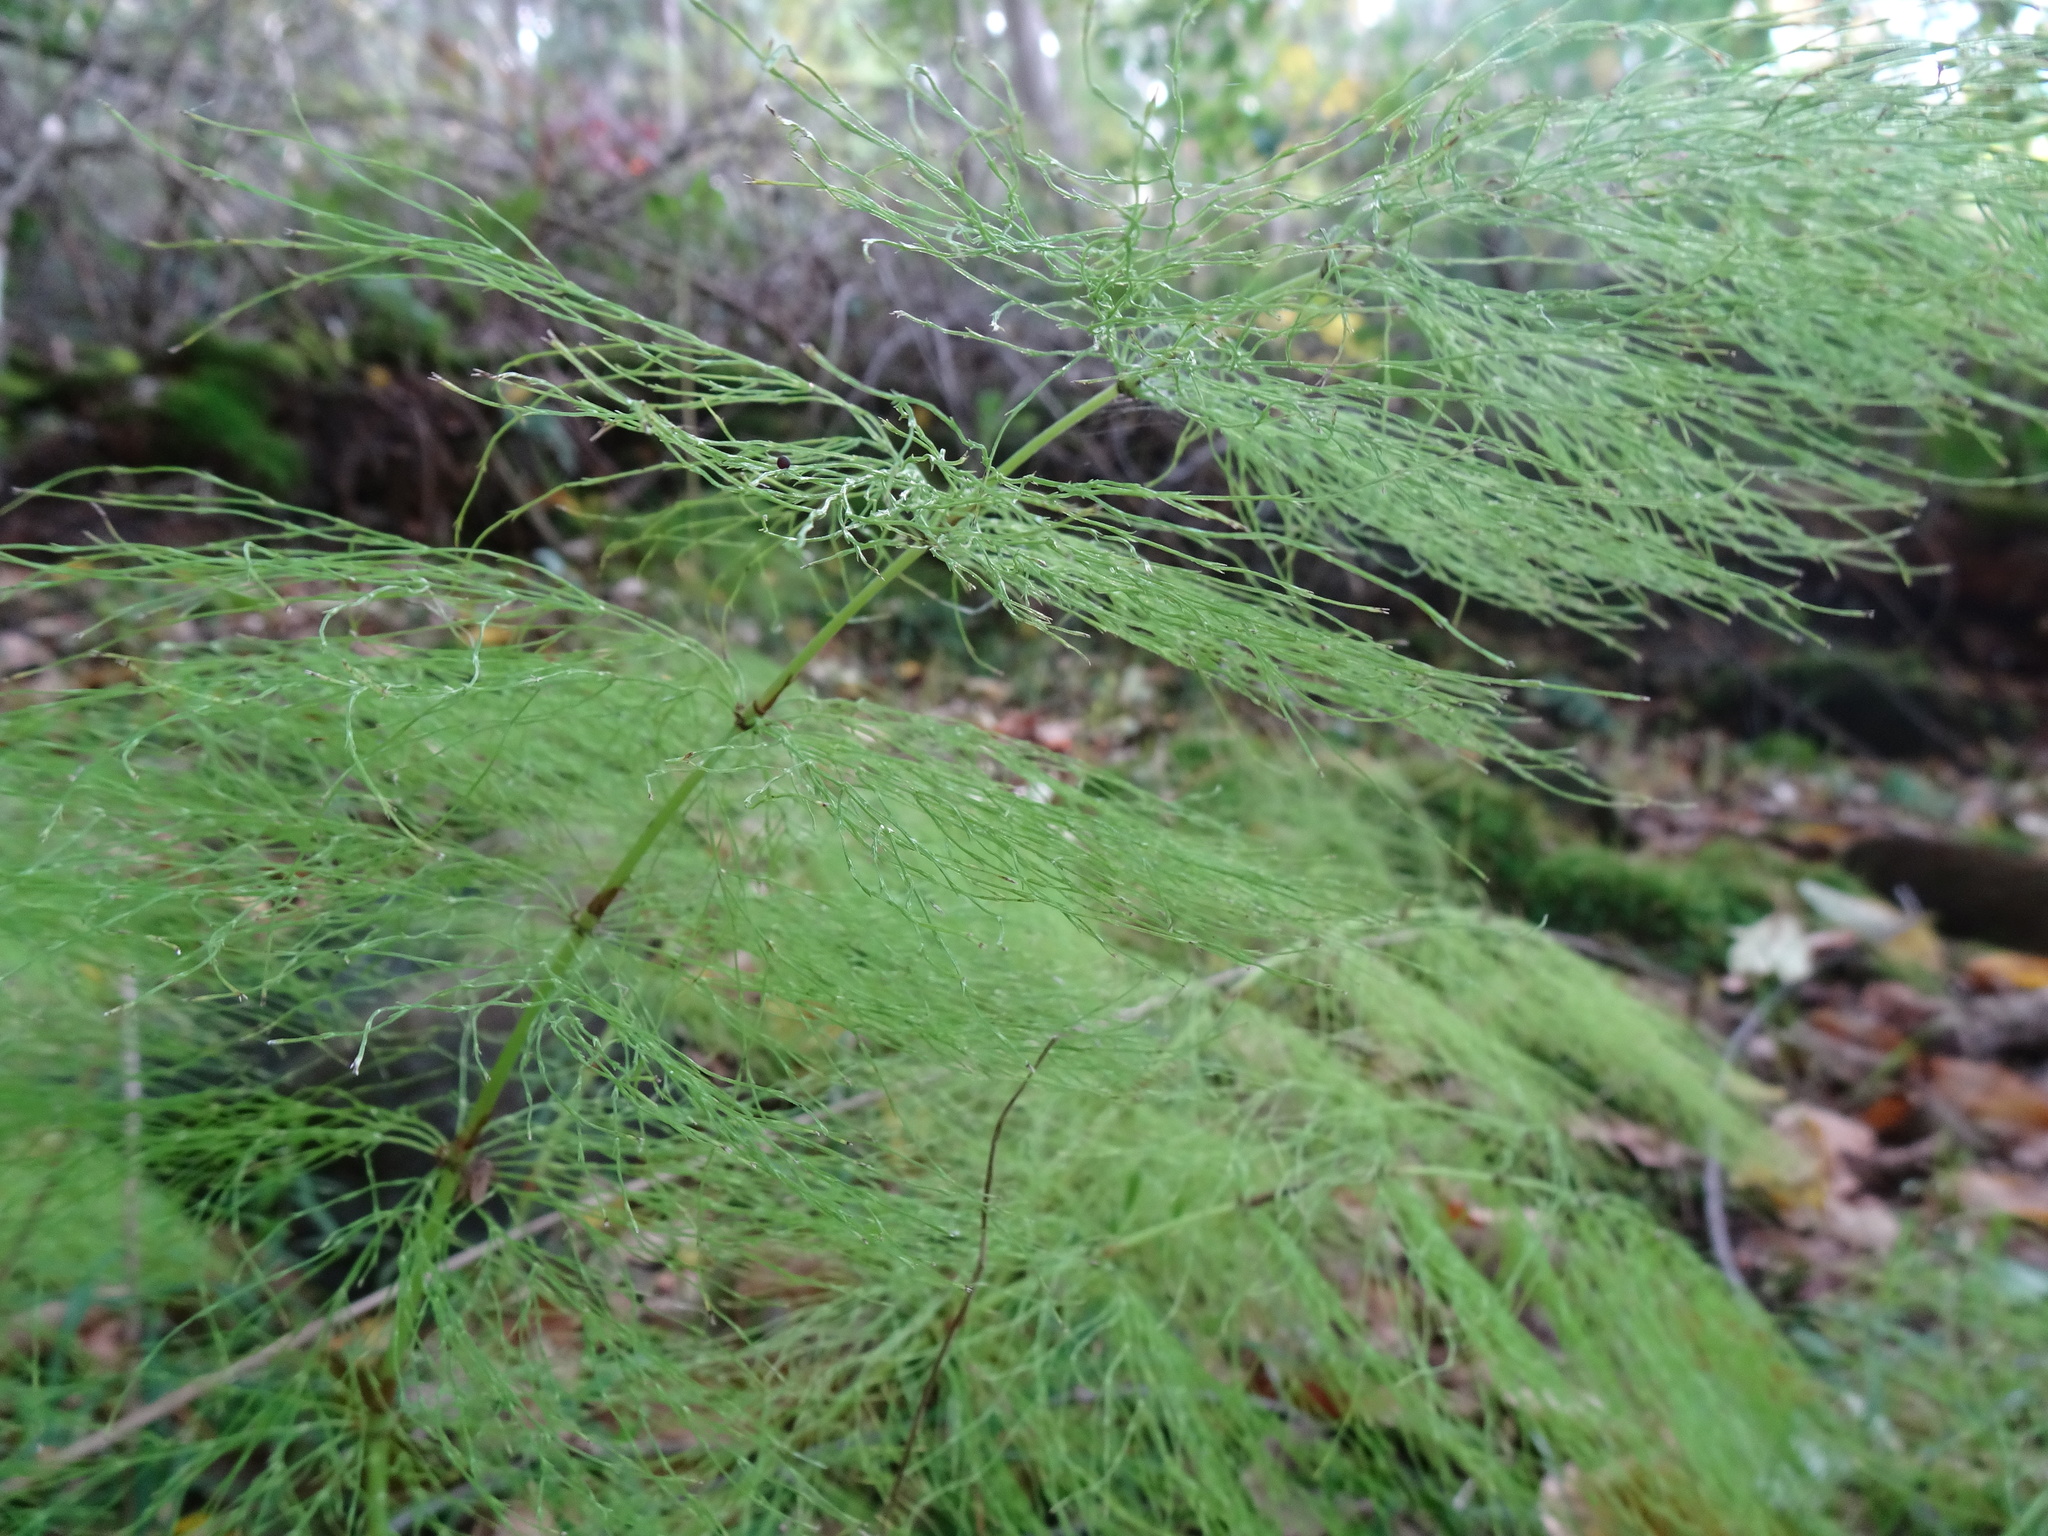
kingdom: Plantae
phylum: Tracheophyta
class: Polypodiopsida
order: Equisetales
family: Equisetaceae
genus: Equisetum
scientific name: Equisetum sylvaticum
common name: Wood horsetail
